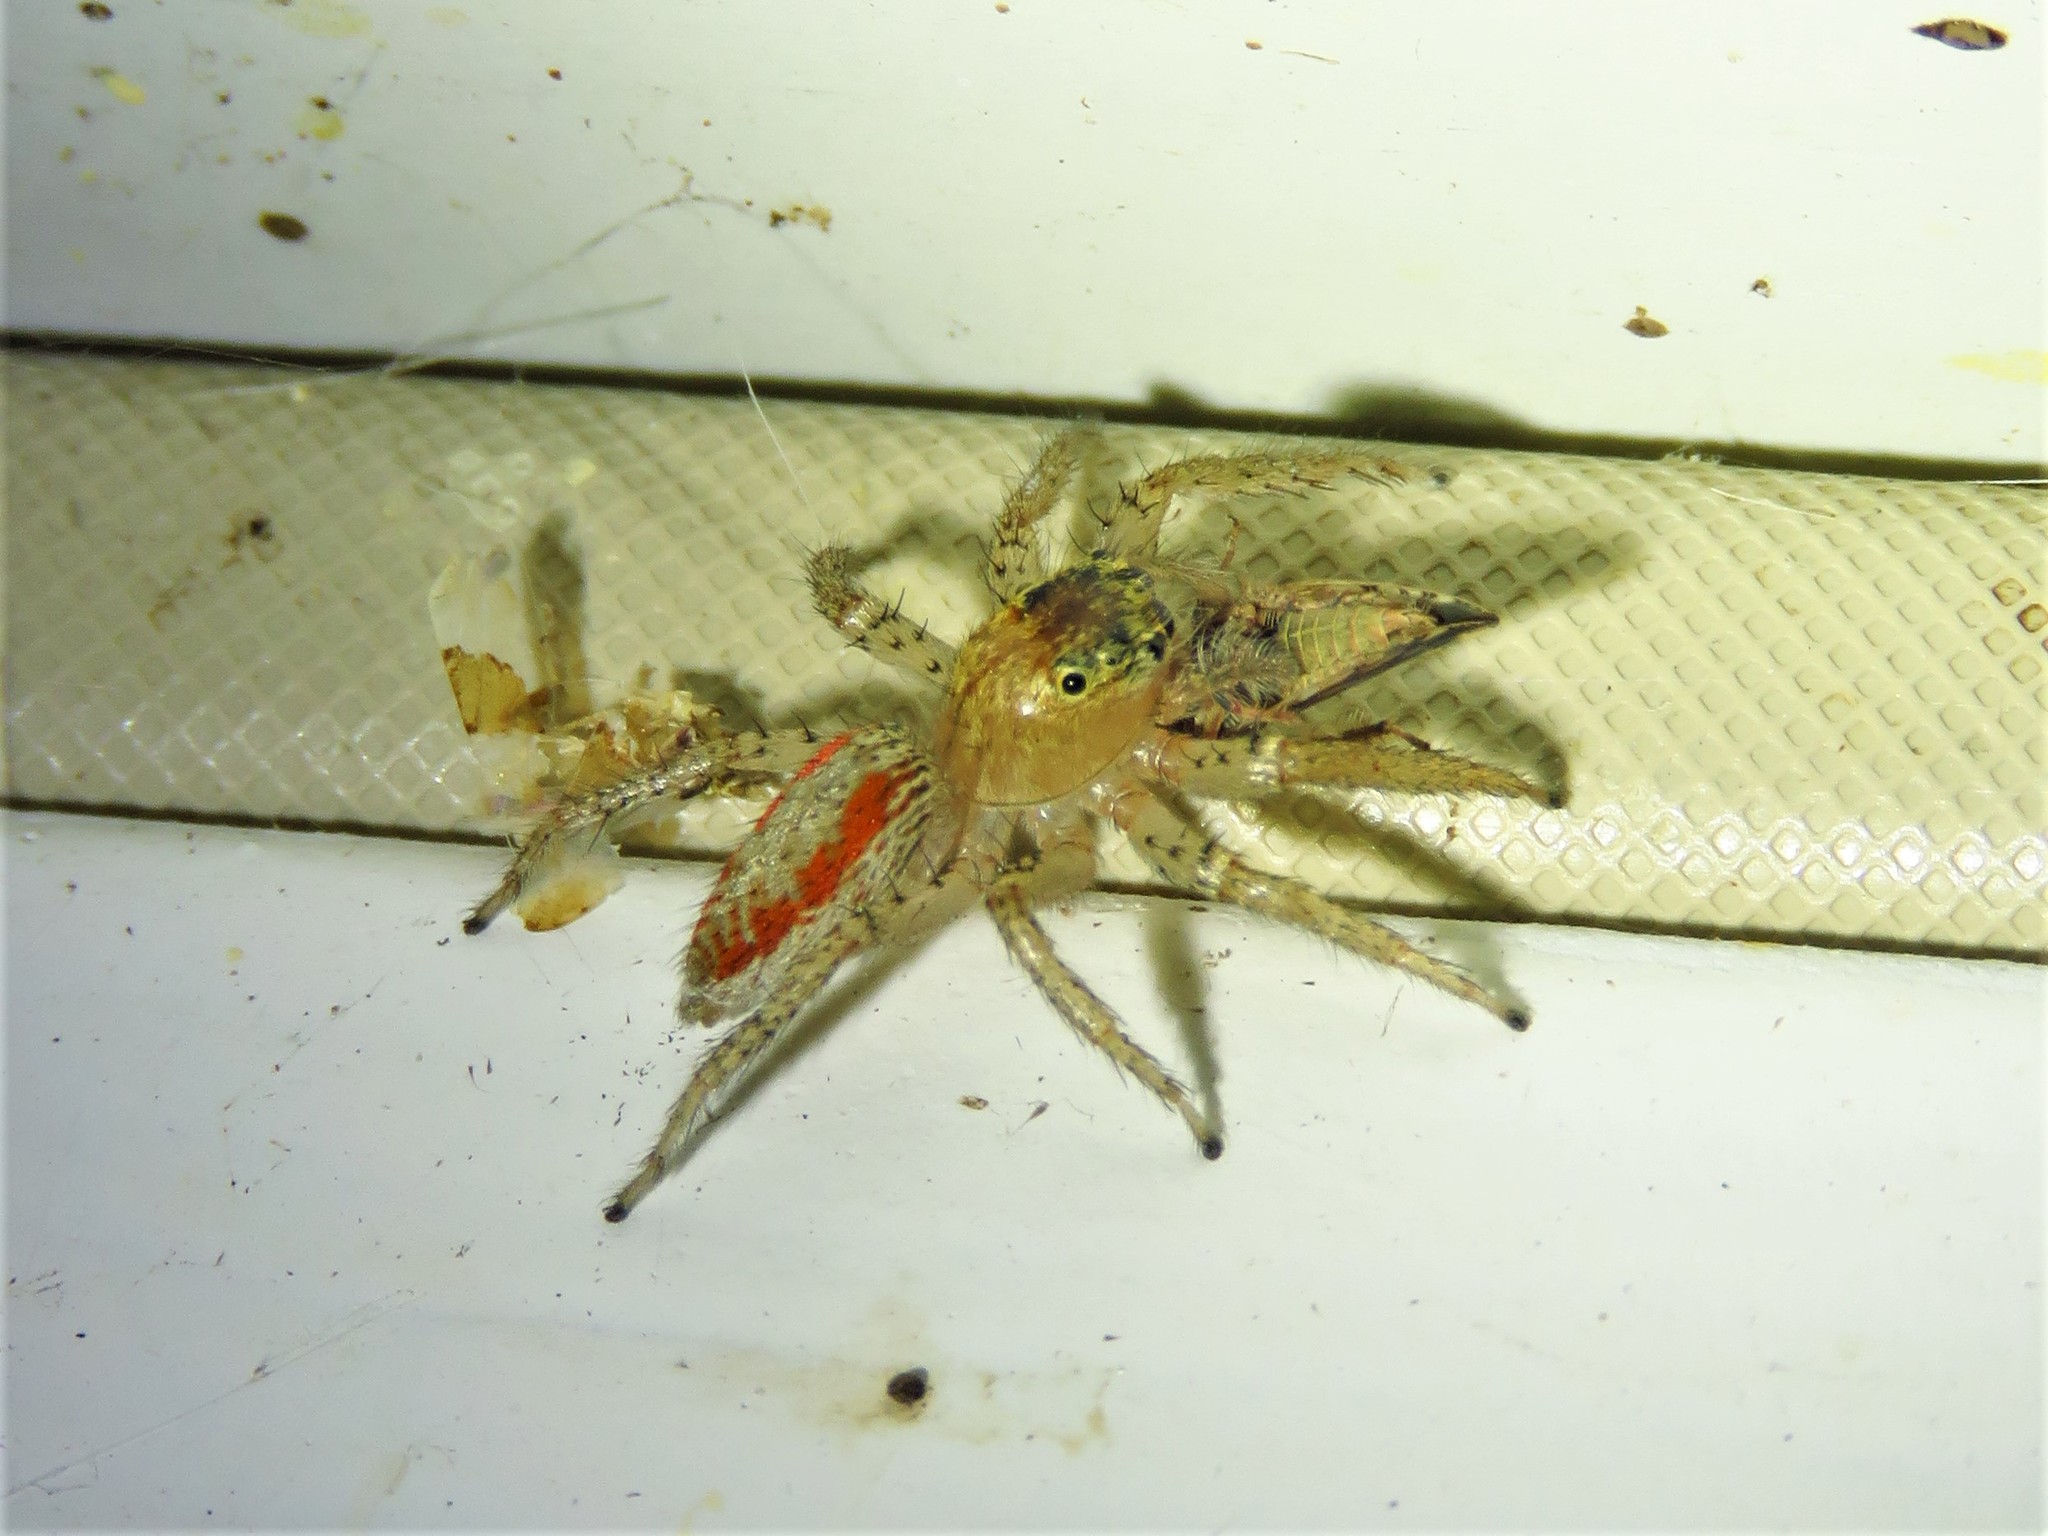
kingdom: Animalia
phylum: Arthropoda
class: Arachnida
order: Araneae
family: Salticidae
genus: Maevia
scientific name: Maevia inclemens
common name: Dimorphic jumper
